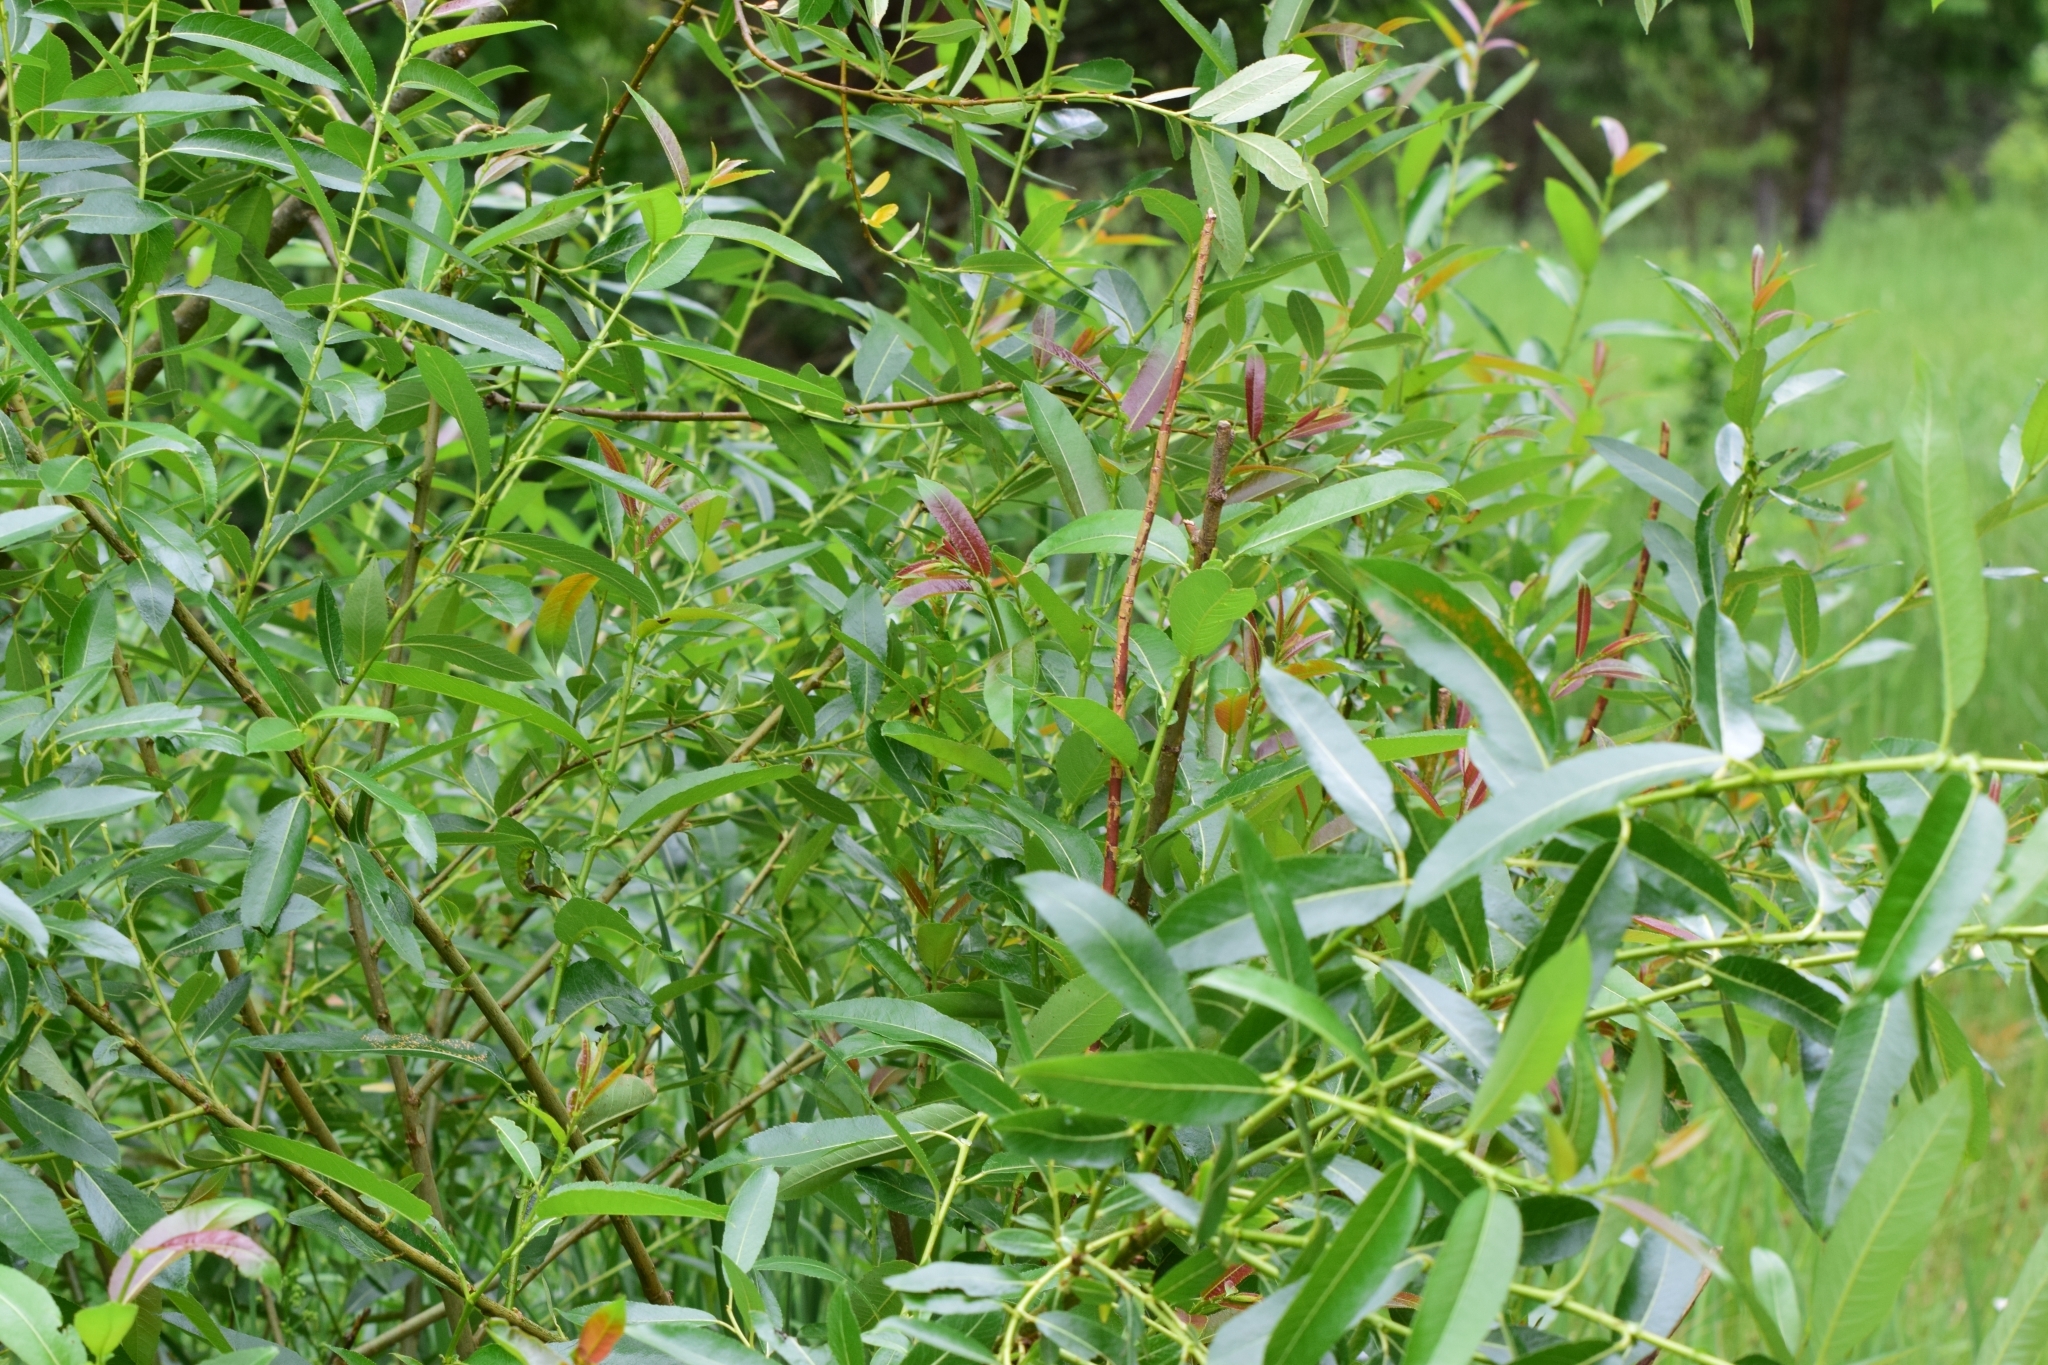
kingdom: Plantae
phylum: Tracheophyta
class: Magnoliopsida
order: Malpighiales
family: Salicaceae
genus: Salix
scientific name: Salix triandra
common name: Almond willow
